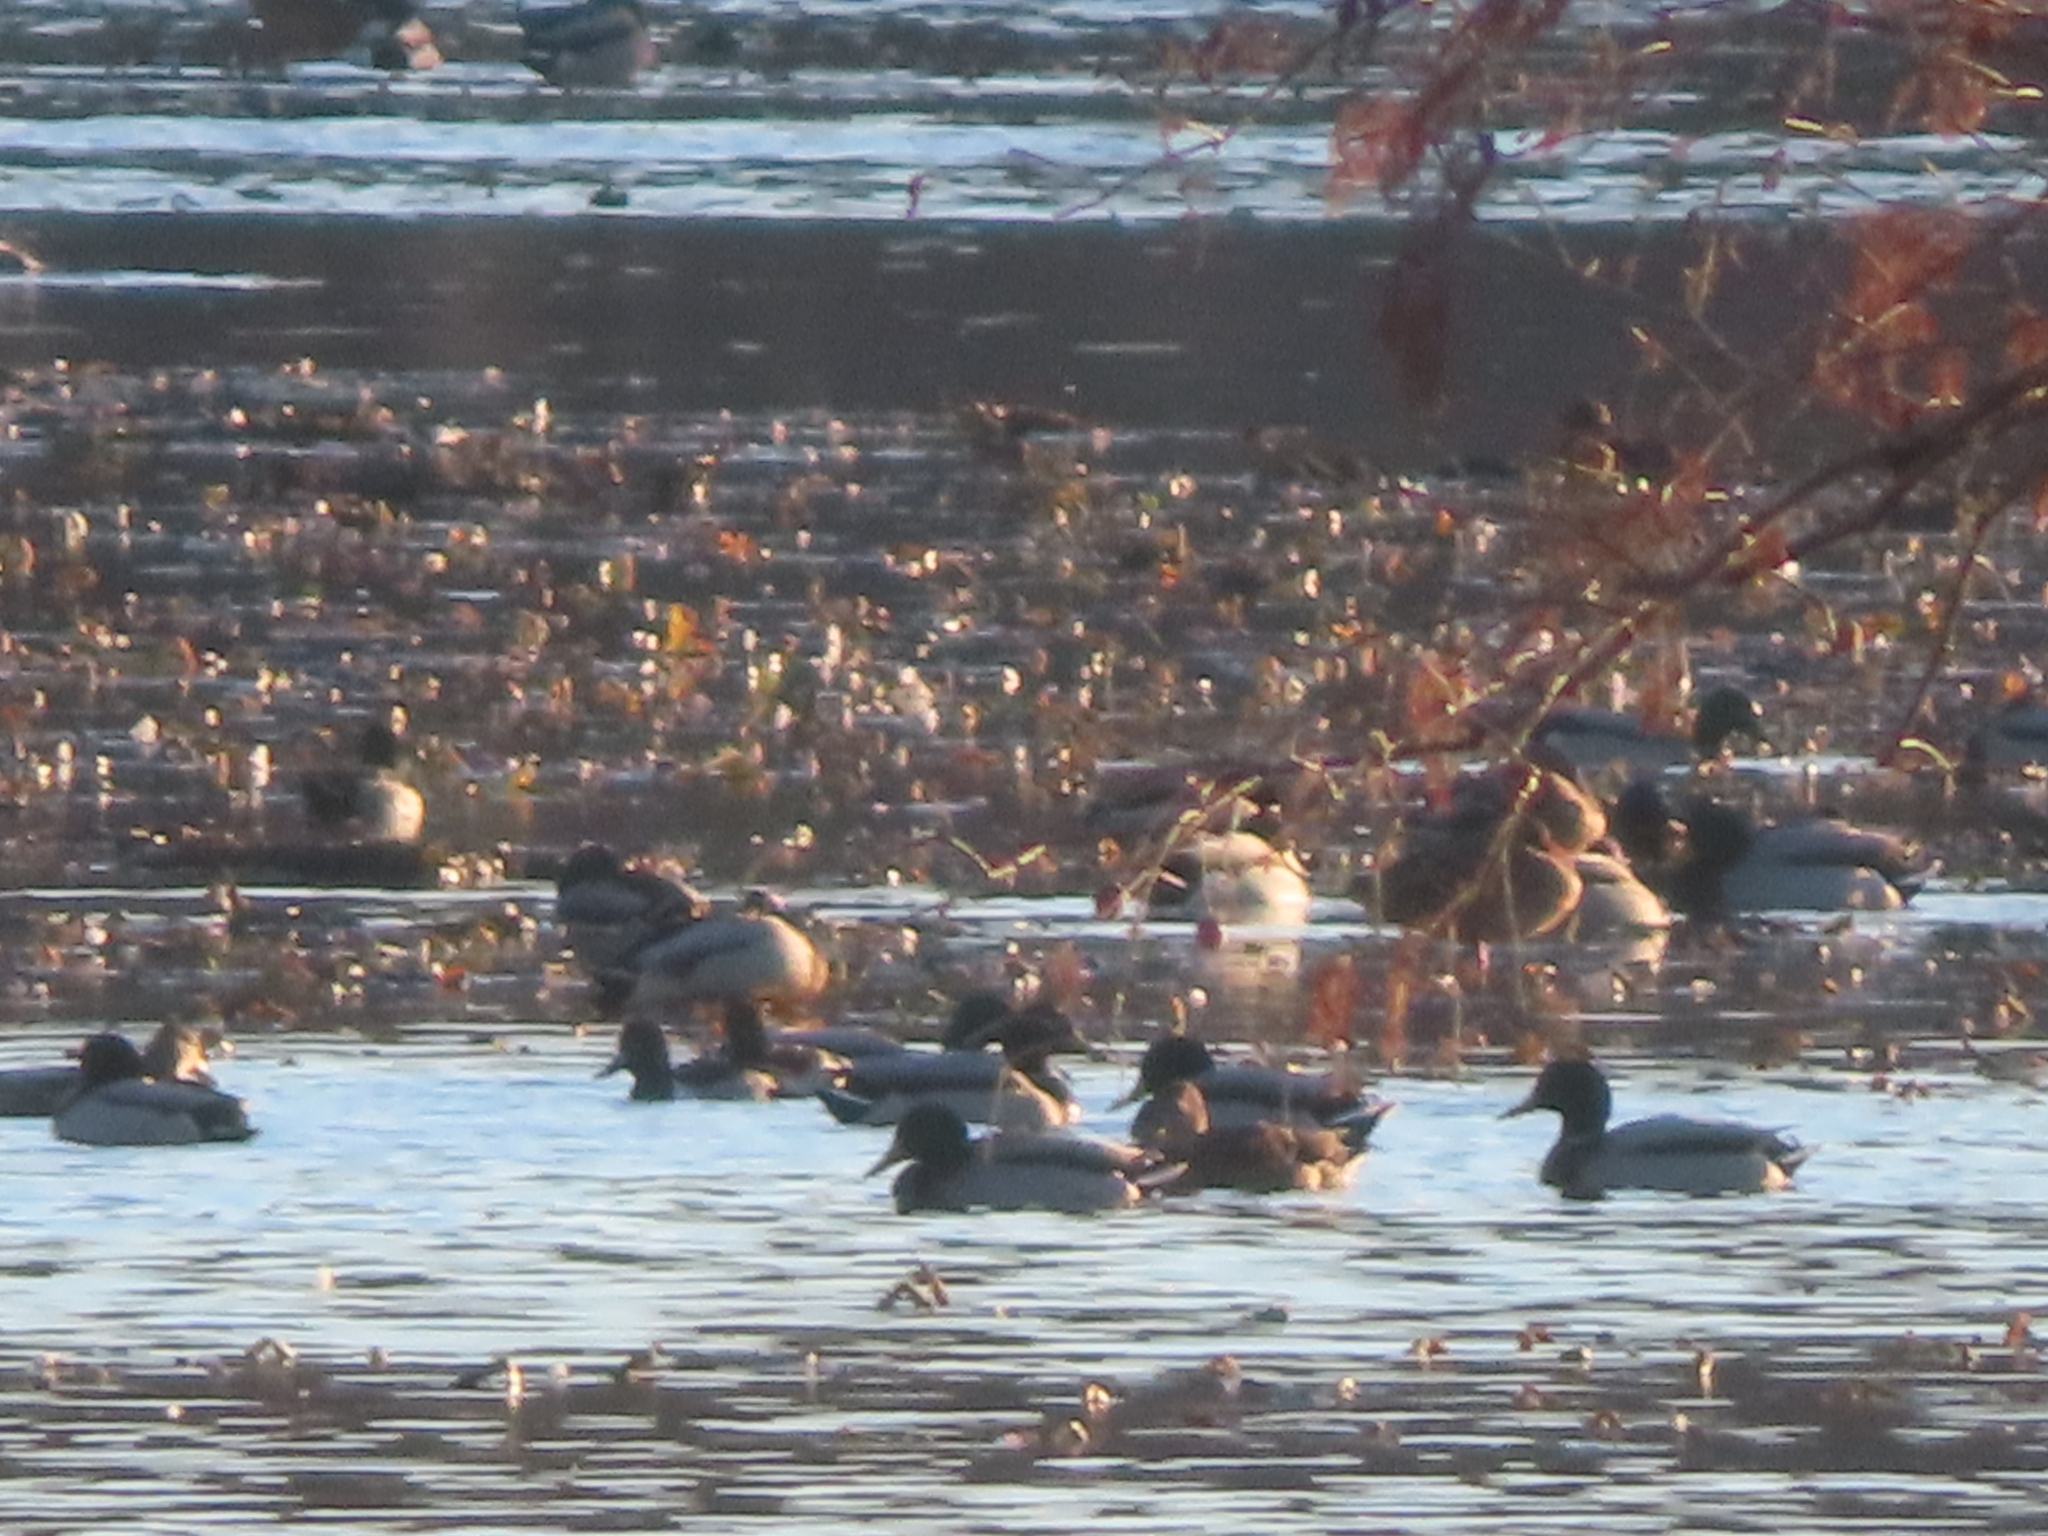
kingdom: Animalia
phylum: Chordata
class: Aves
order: Anseriformes
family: Anatidae
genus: Aythya
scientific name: Aythya collaris
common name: Ring-necked duck
